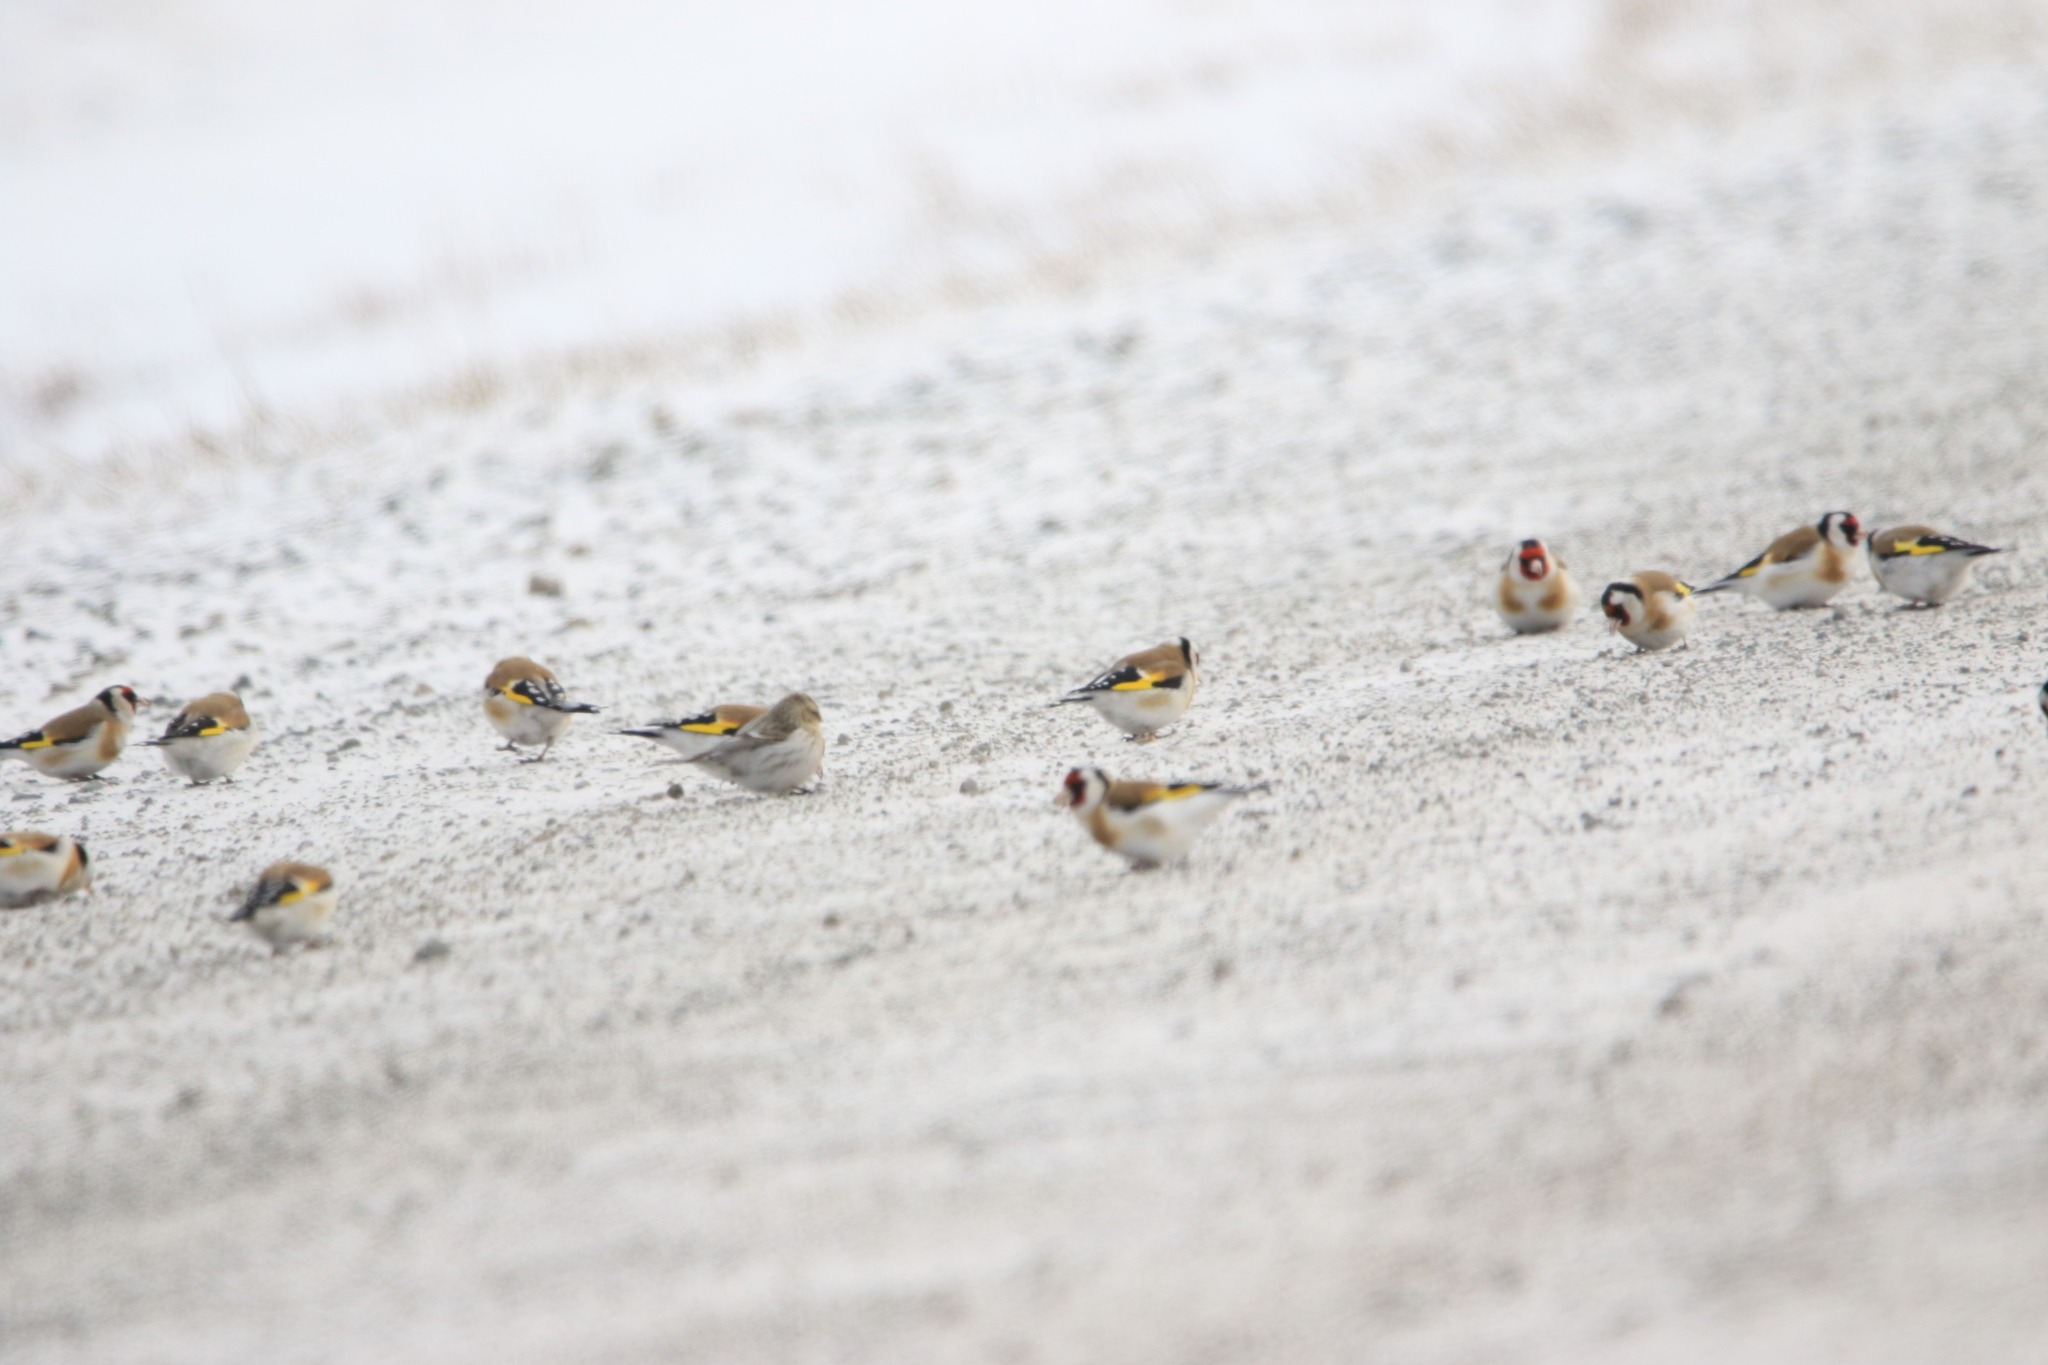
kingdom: Animalia
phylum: Chordata
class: Aves
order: Passeriformes
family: Fringillidae
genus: Carduelis
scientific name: Carduelis carduelis
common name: European goldfinch
